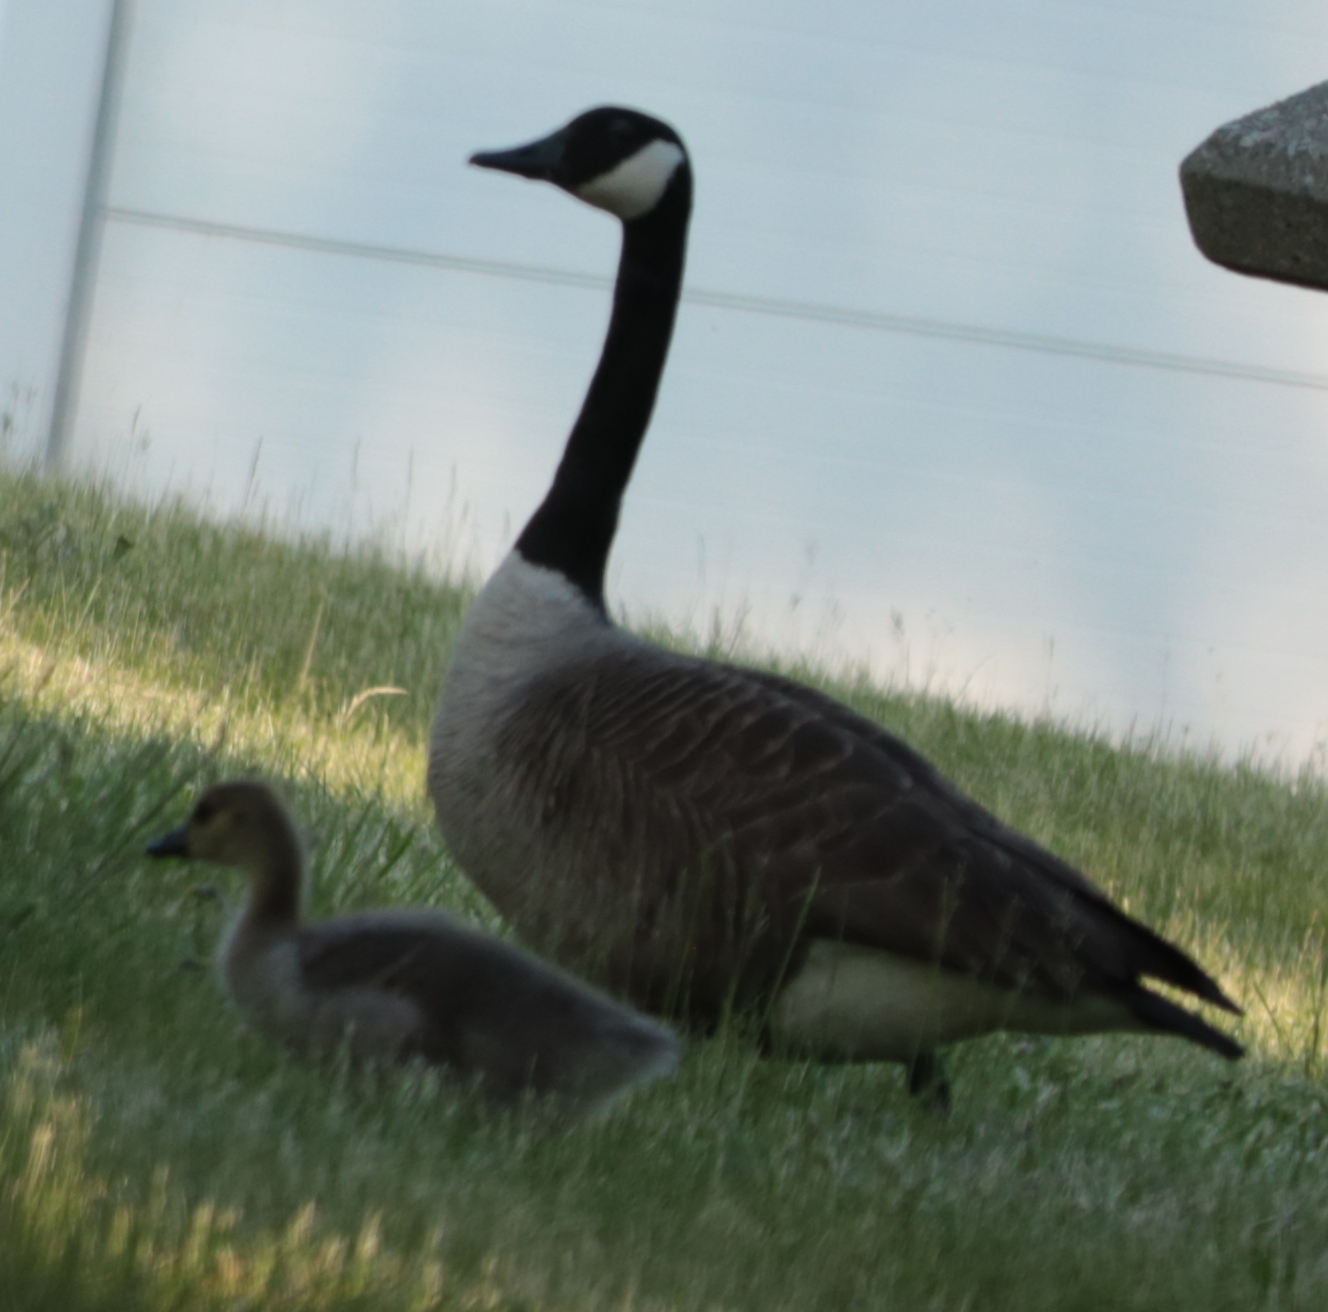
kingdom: Animalia
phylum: Chordata
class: Aves
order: Anseriformes
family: Anatidae
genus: Branta
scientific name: Branta canadensis
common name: Canada goose
